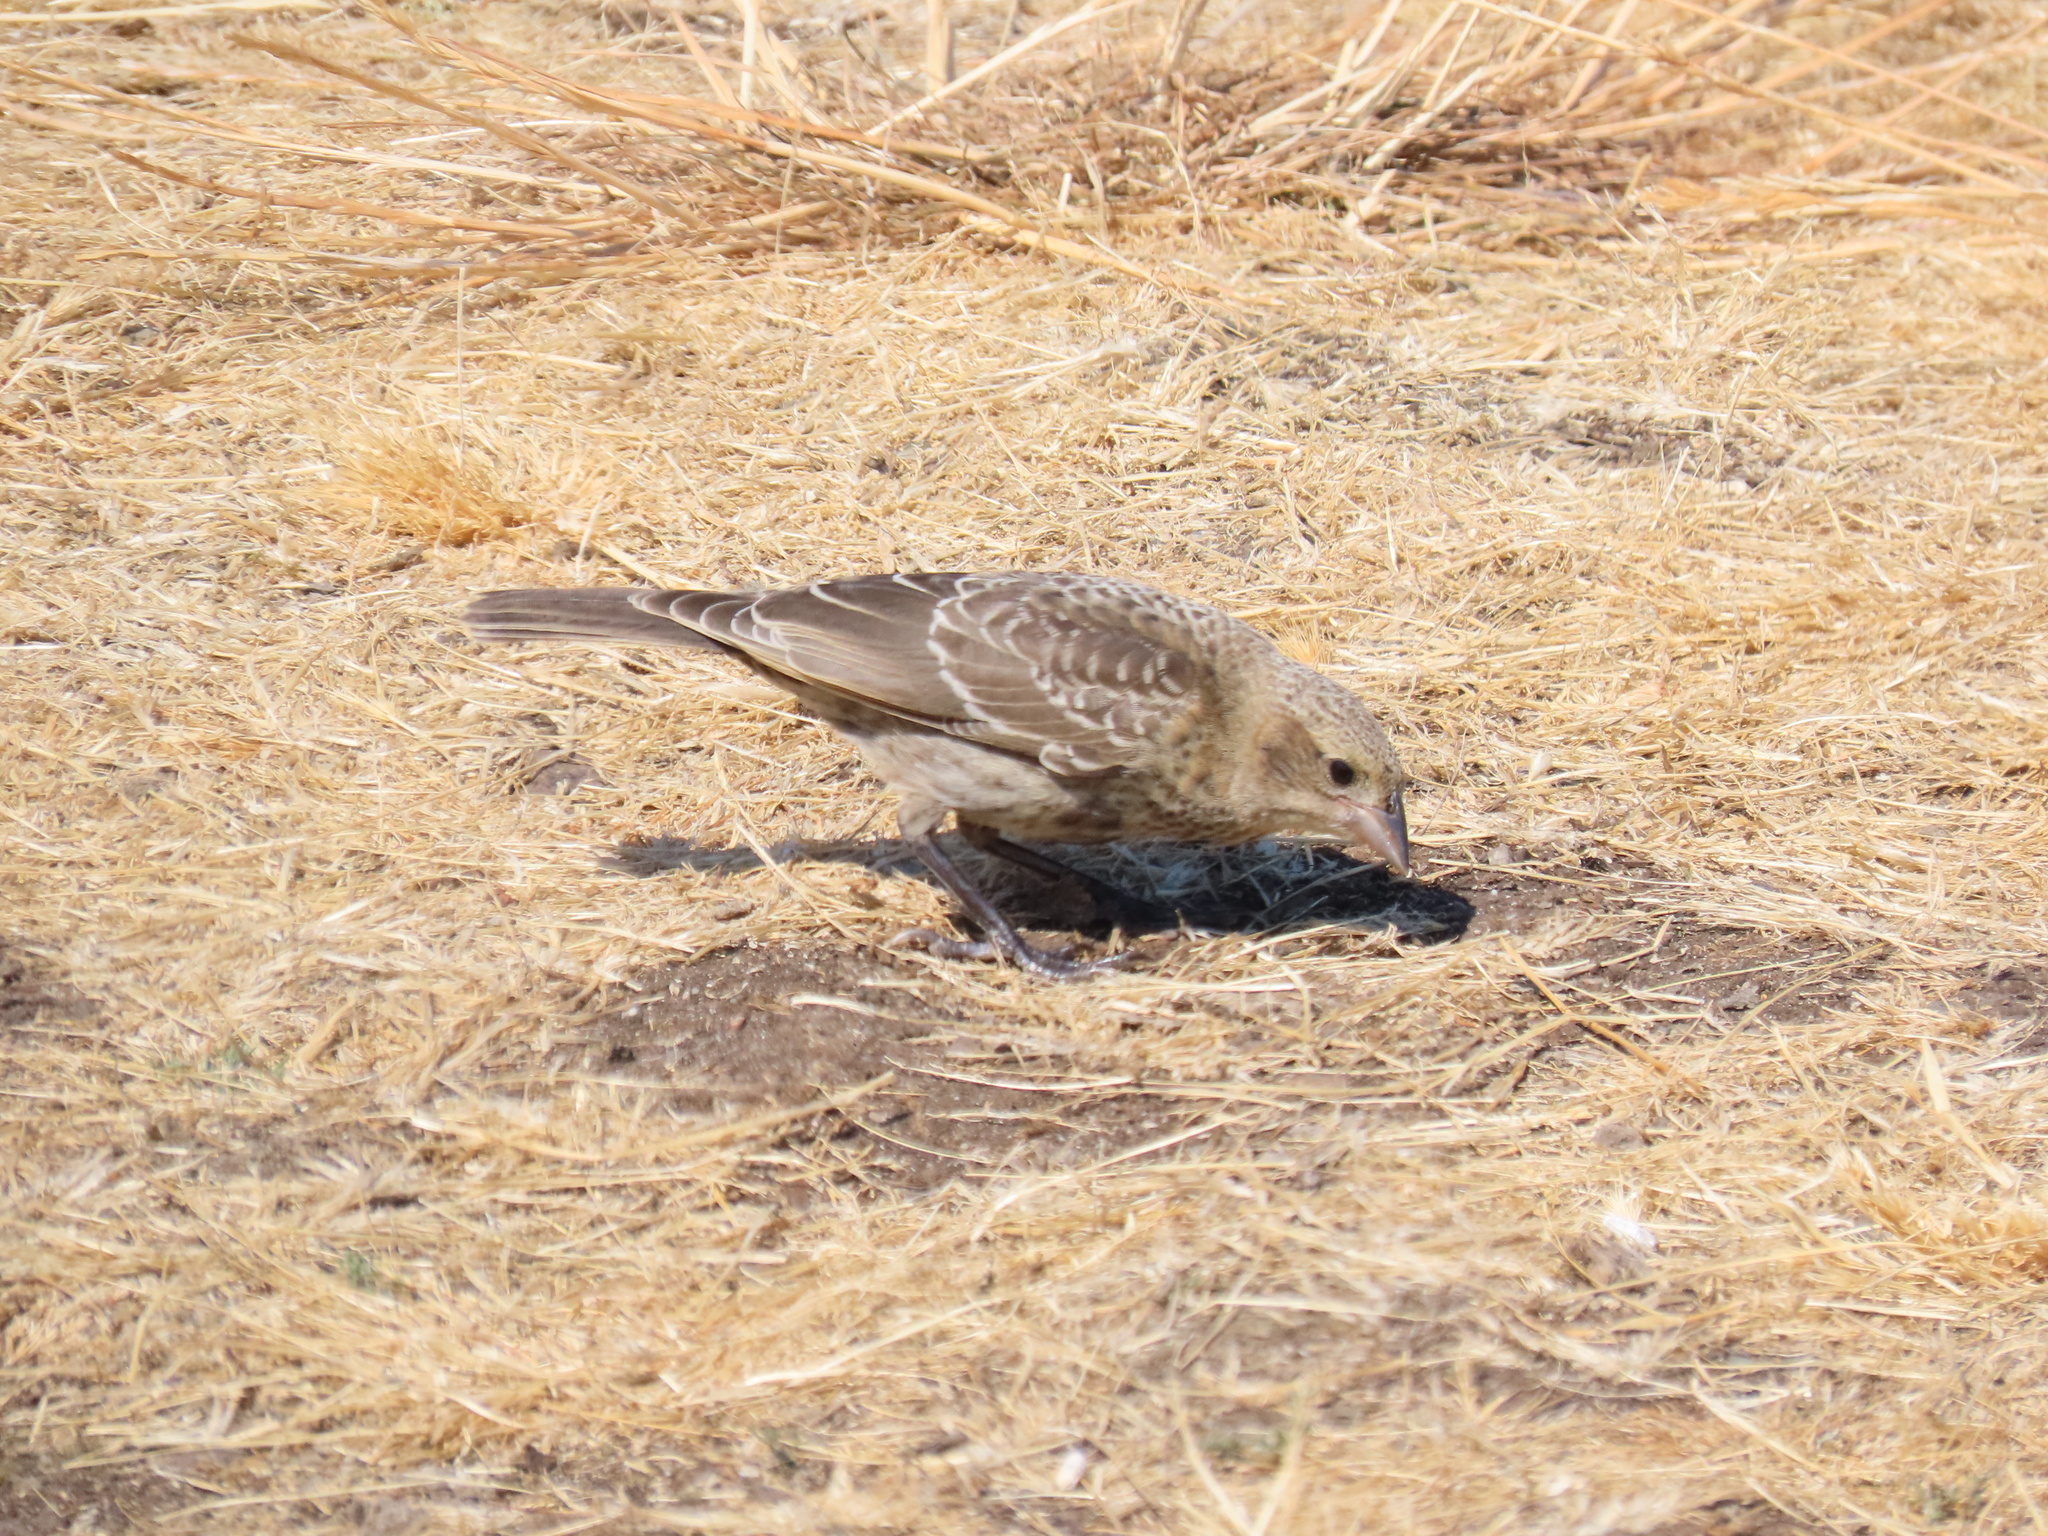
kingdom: Animalia
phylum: Chordata
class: Aves
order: Passeriformes
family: Icteridae
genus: Molothrus
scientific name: Molothrus ater
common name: Brown-headed cowbird
